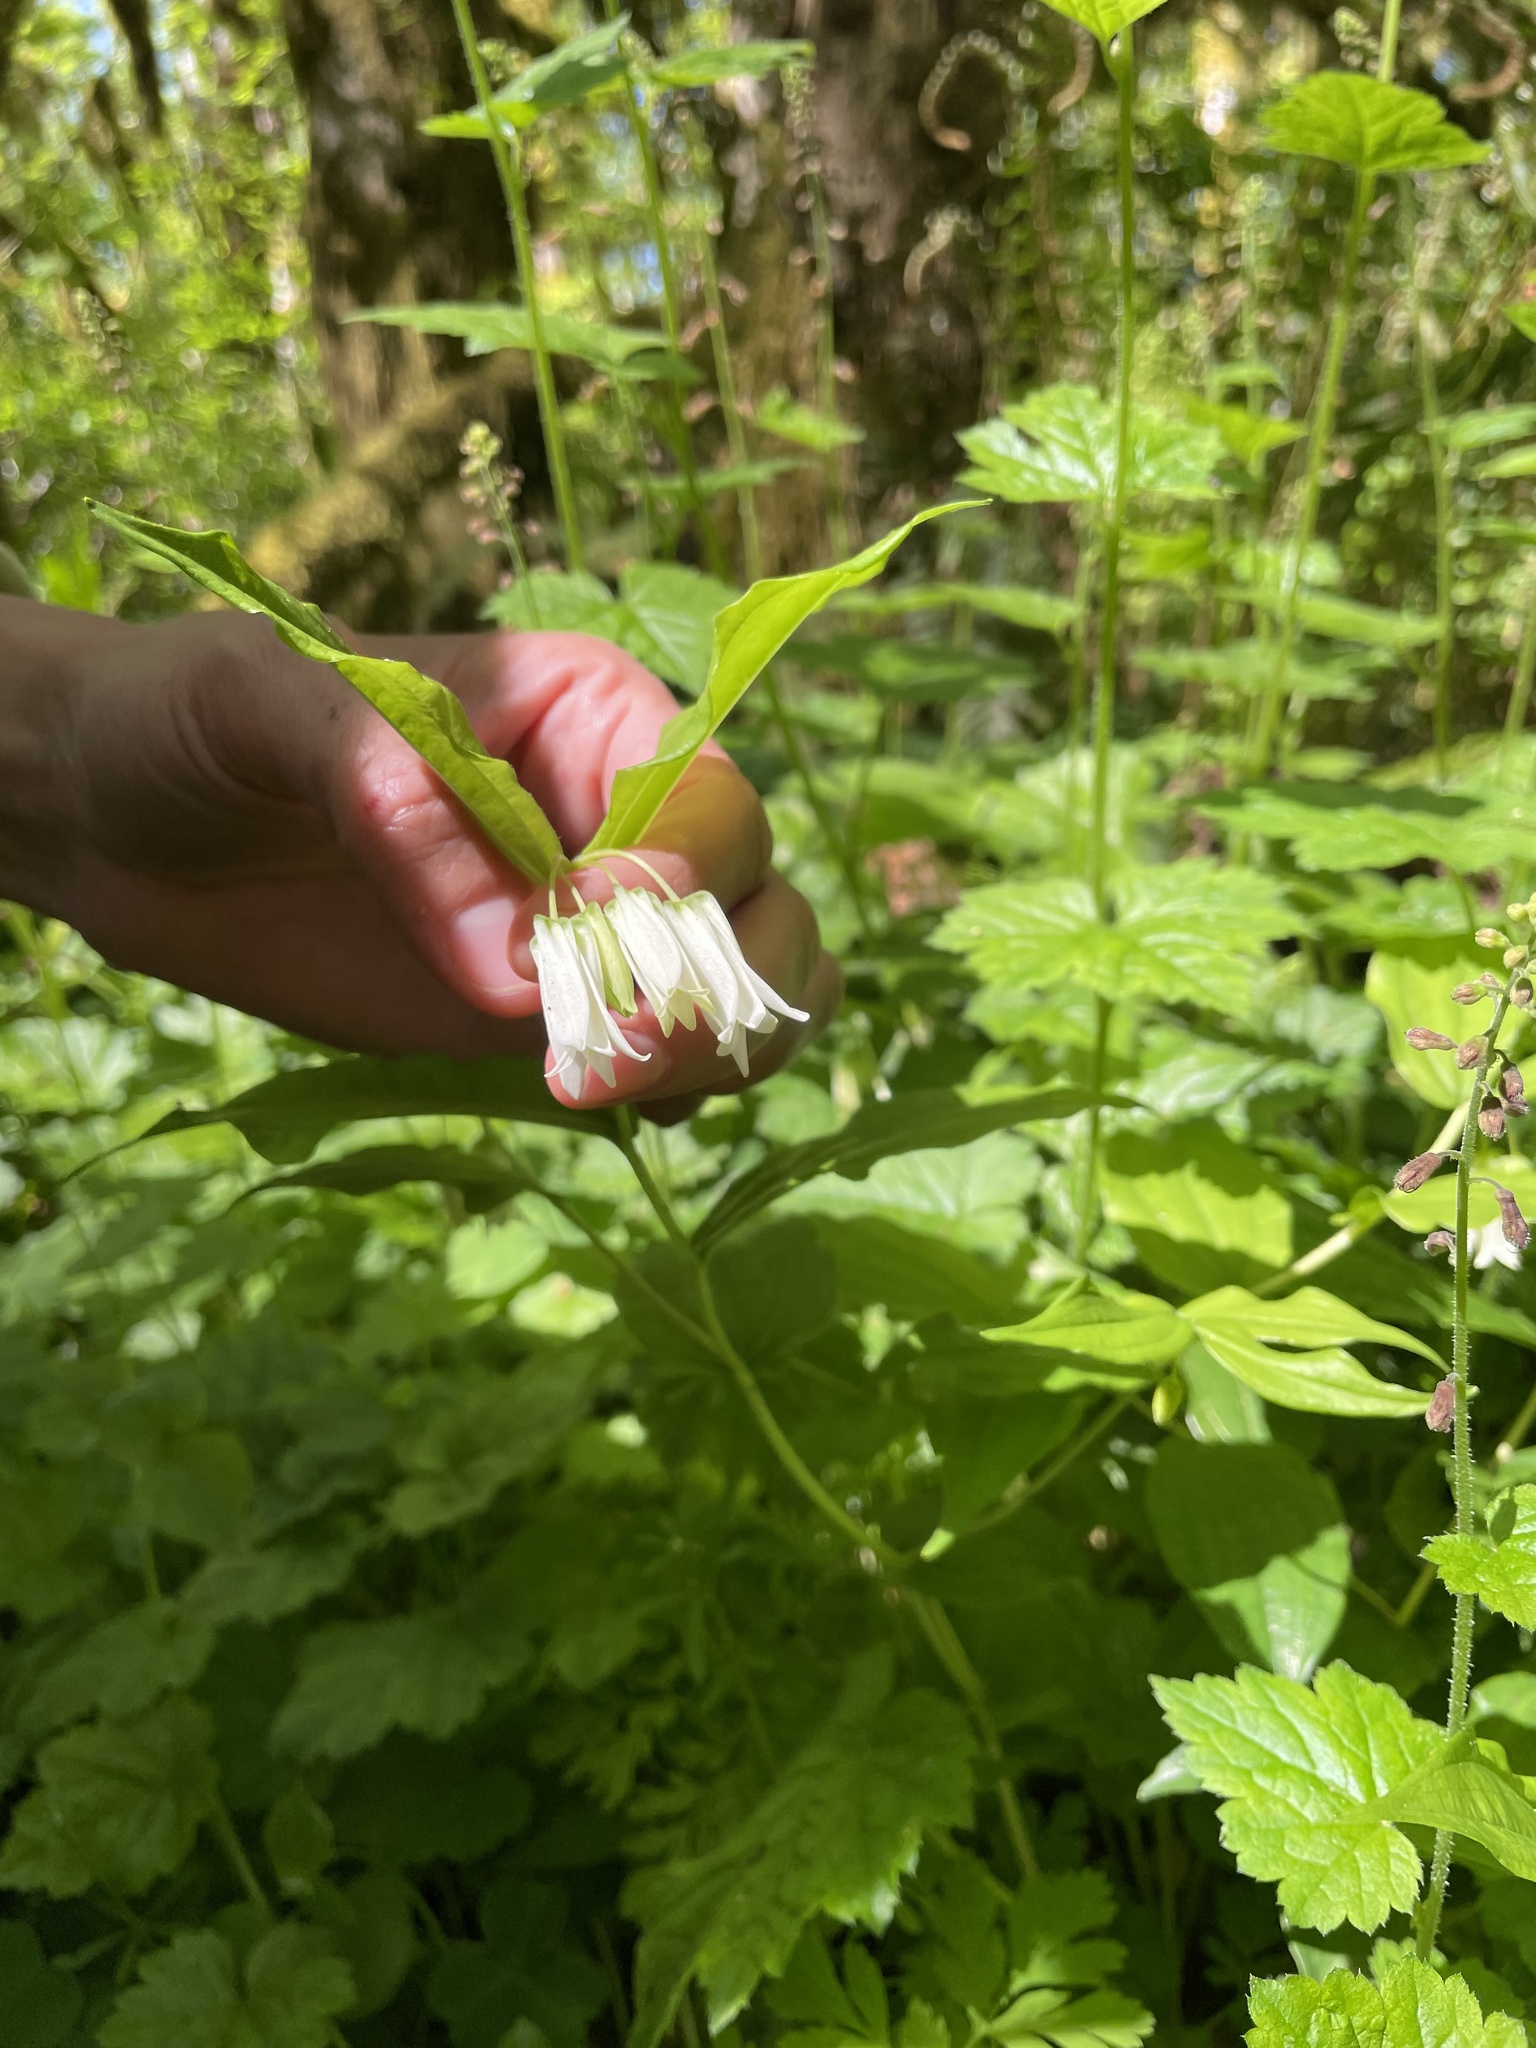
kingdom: Plantae
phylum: Tracheophyta
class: Liliopsida
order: Liliales
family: Liliaceae
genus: Prosartes
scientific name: Prosartes smithii
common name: Fairy-lantern
